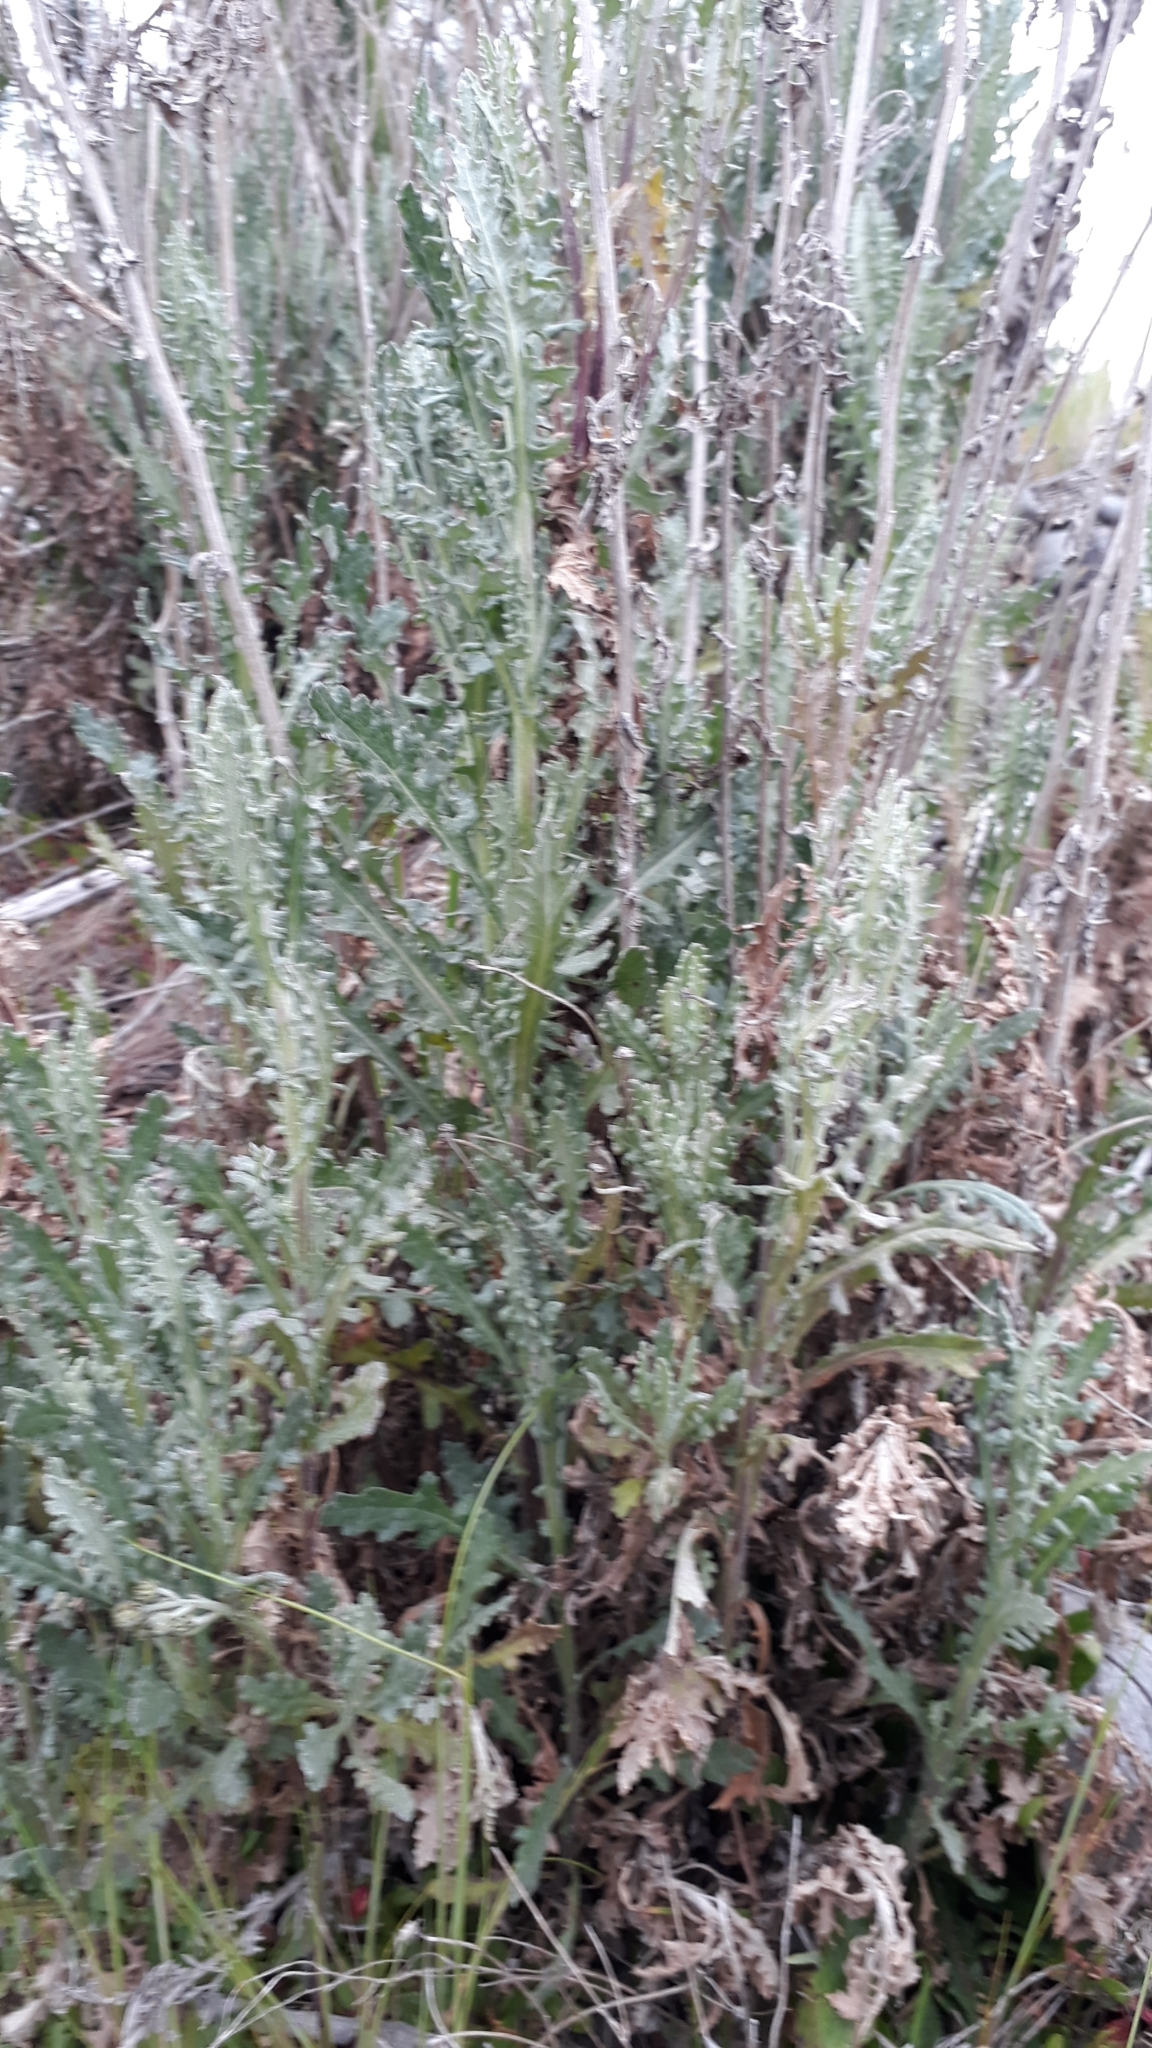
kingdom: Plantae
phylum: Tracheophyta
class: Magnoliopsida
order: Asterales
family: Asteraceae
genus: Senecio
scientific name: Senecio glomeratus
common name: Cutleaf burnweed
